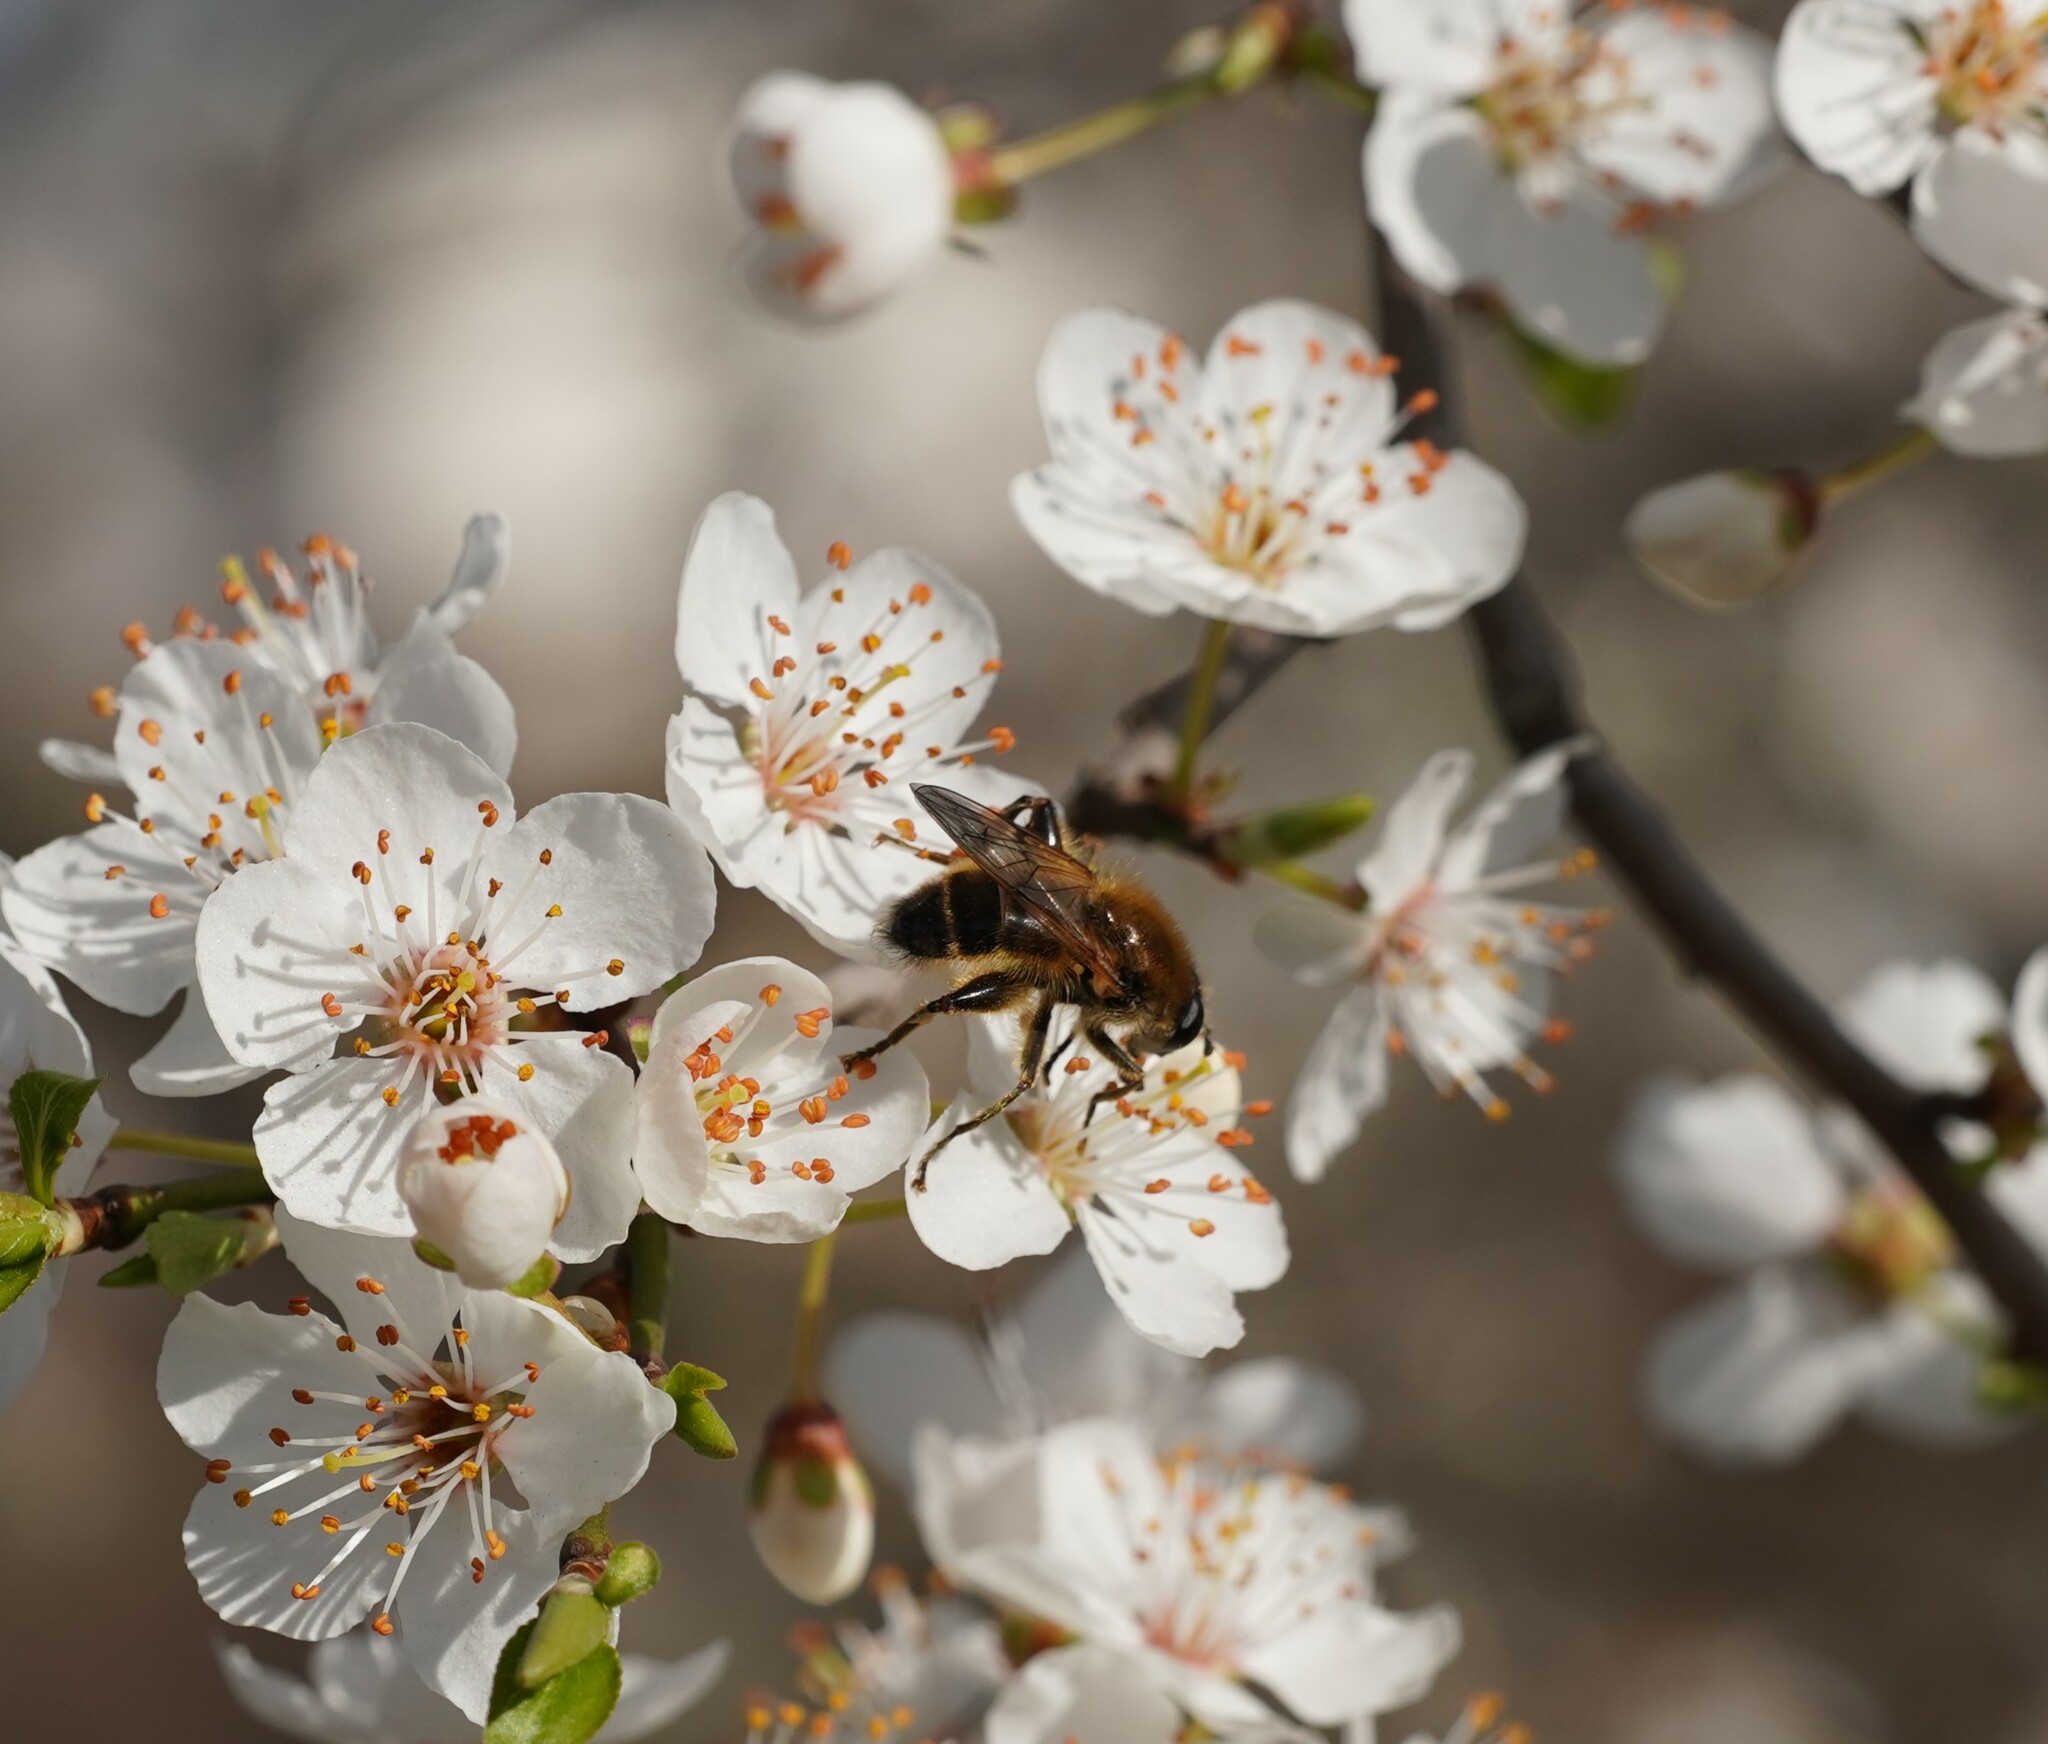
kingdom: Animalia
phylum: Arthropoda
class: Insecta
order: Diptera
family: Syrphidae
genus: Brachypalpus
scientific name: Brachypalpus valgus
